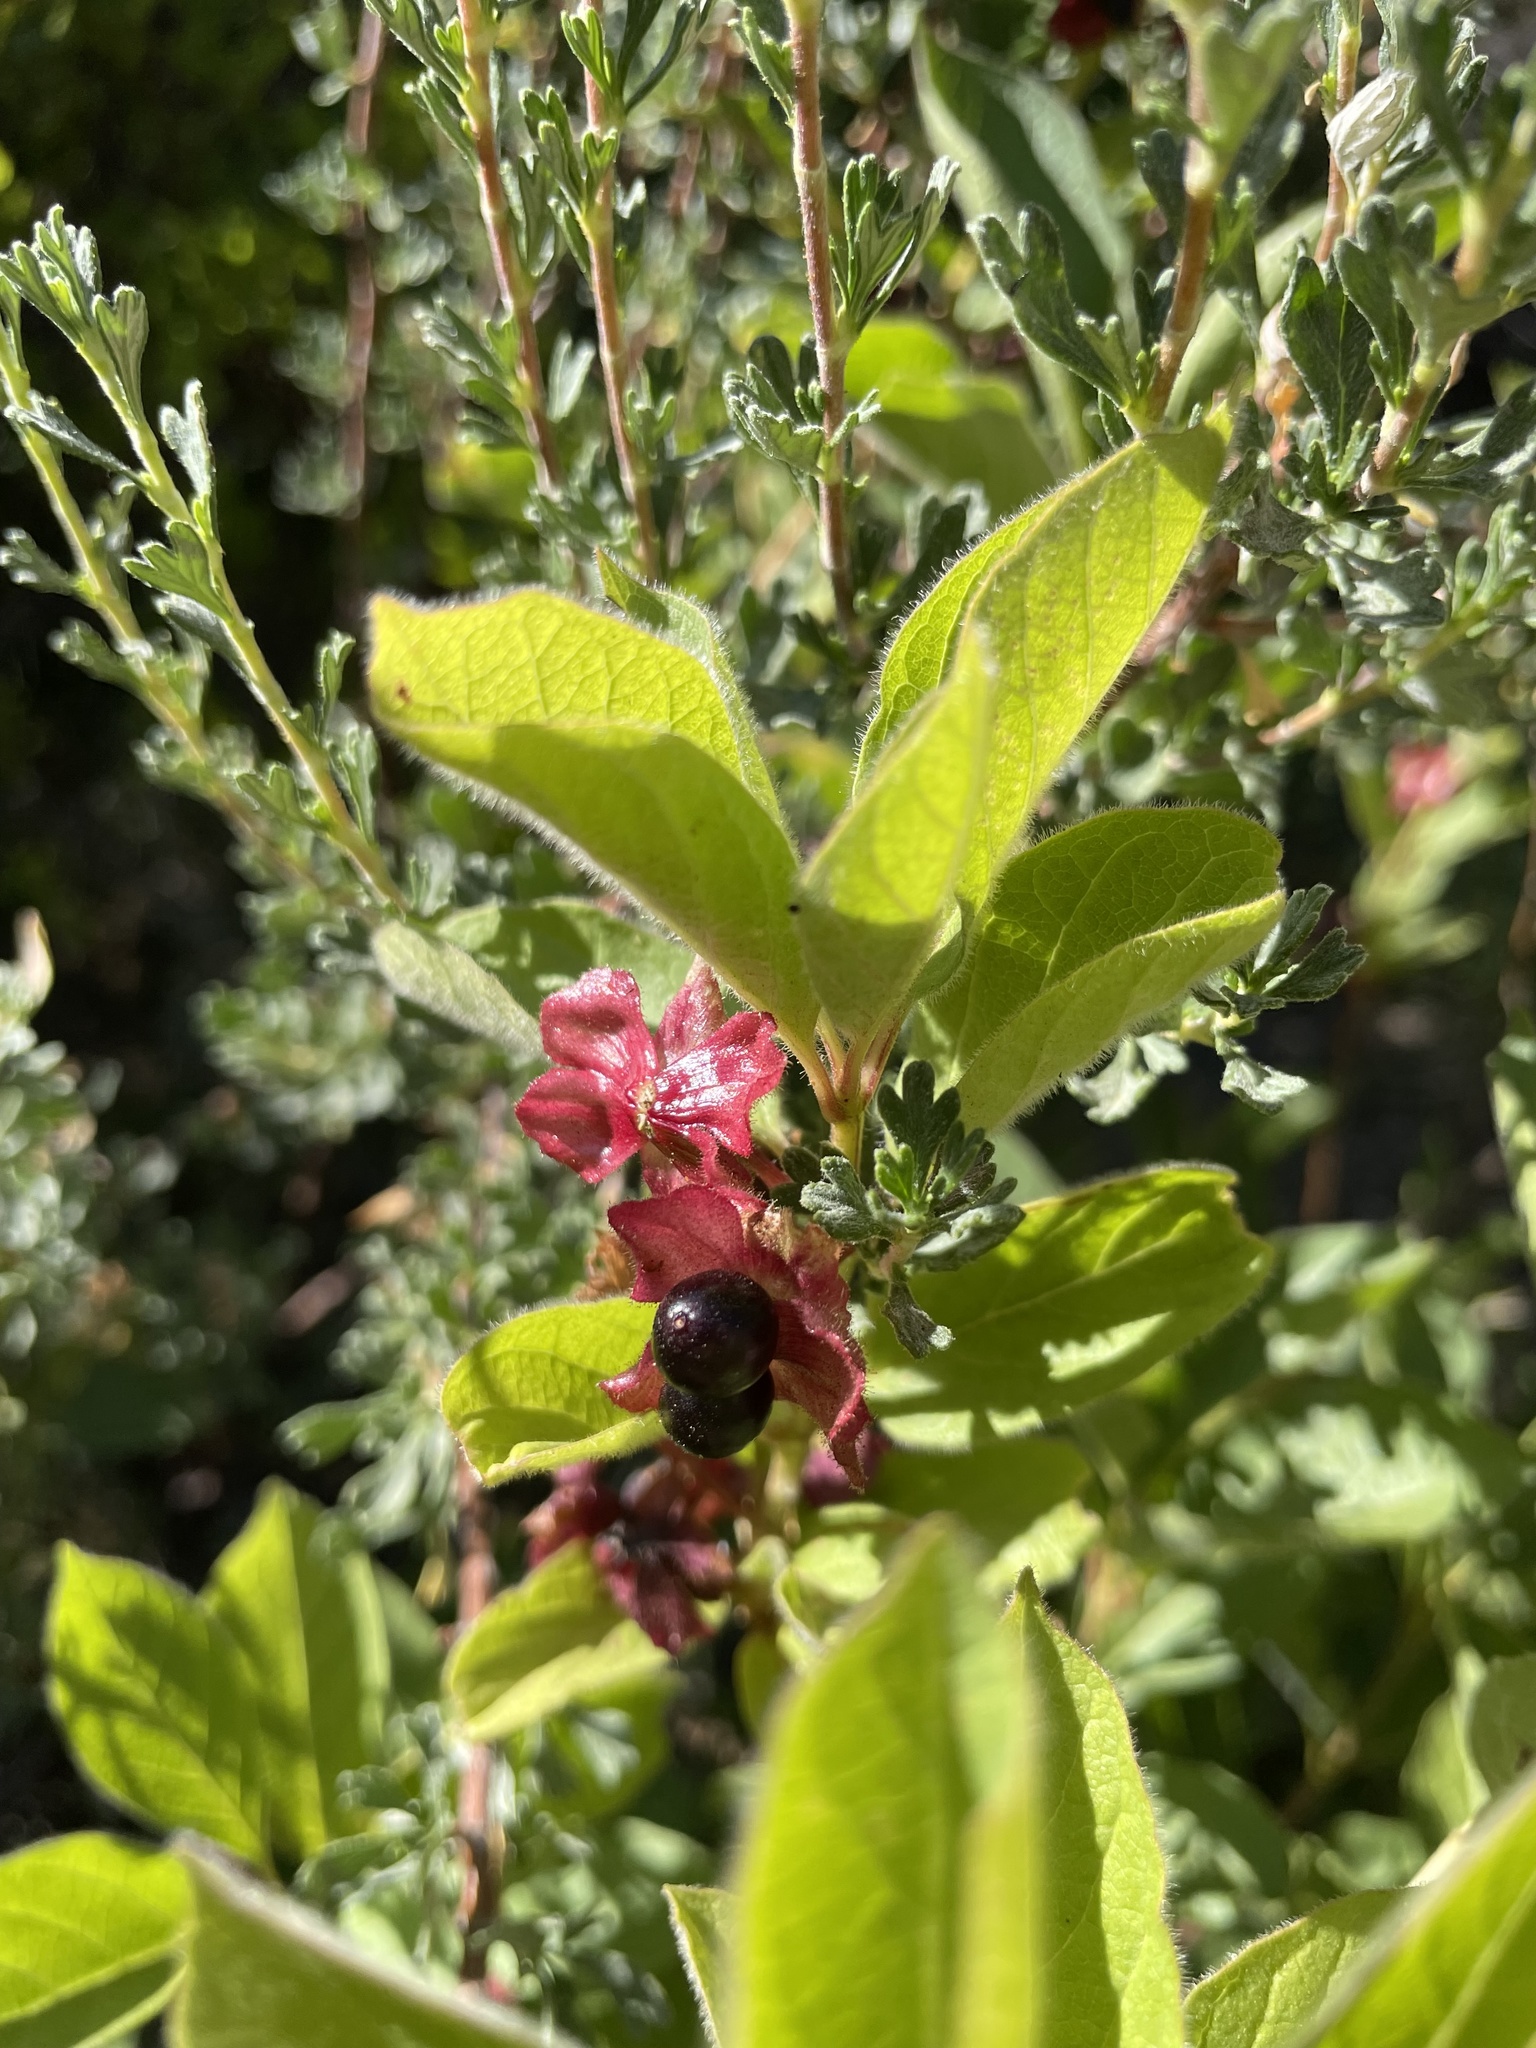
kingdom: Plantae
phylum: Tracheophyta
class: Magnoliopsida
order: Dipsacales
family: Caprifoliaceae
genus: Lonicera
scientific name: Lonicera involucrata
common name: Californian honeysuckle
